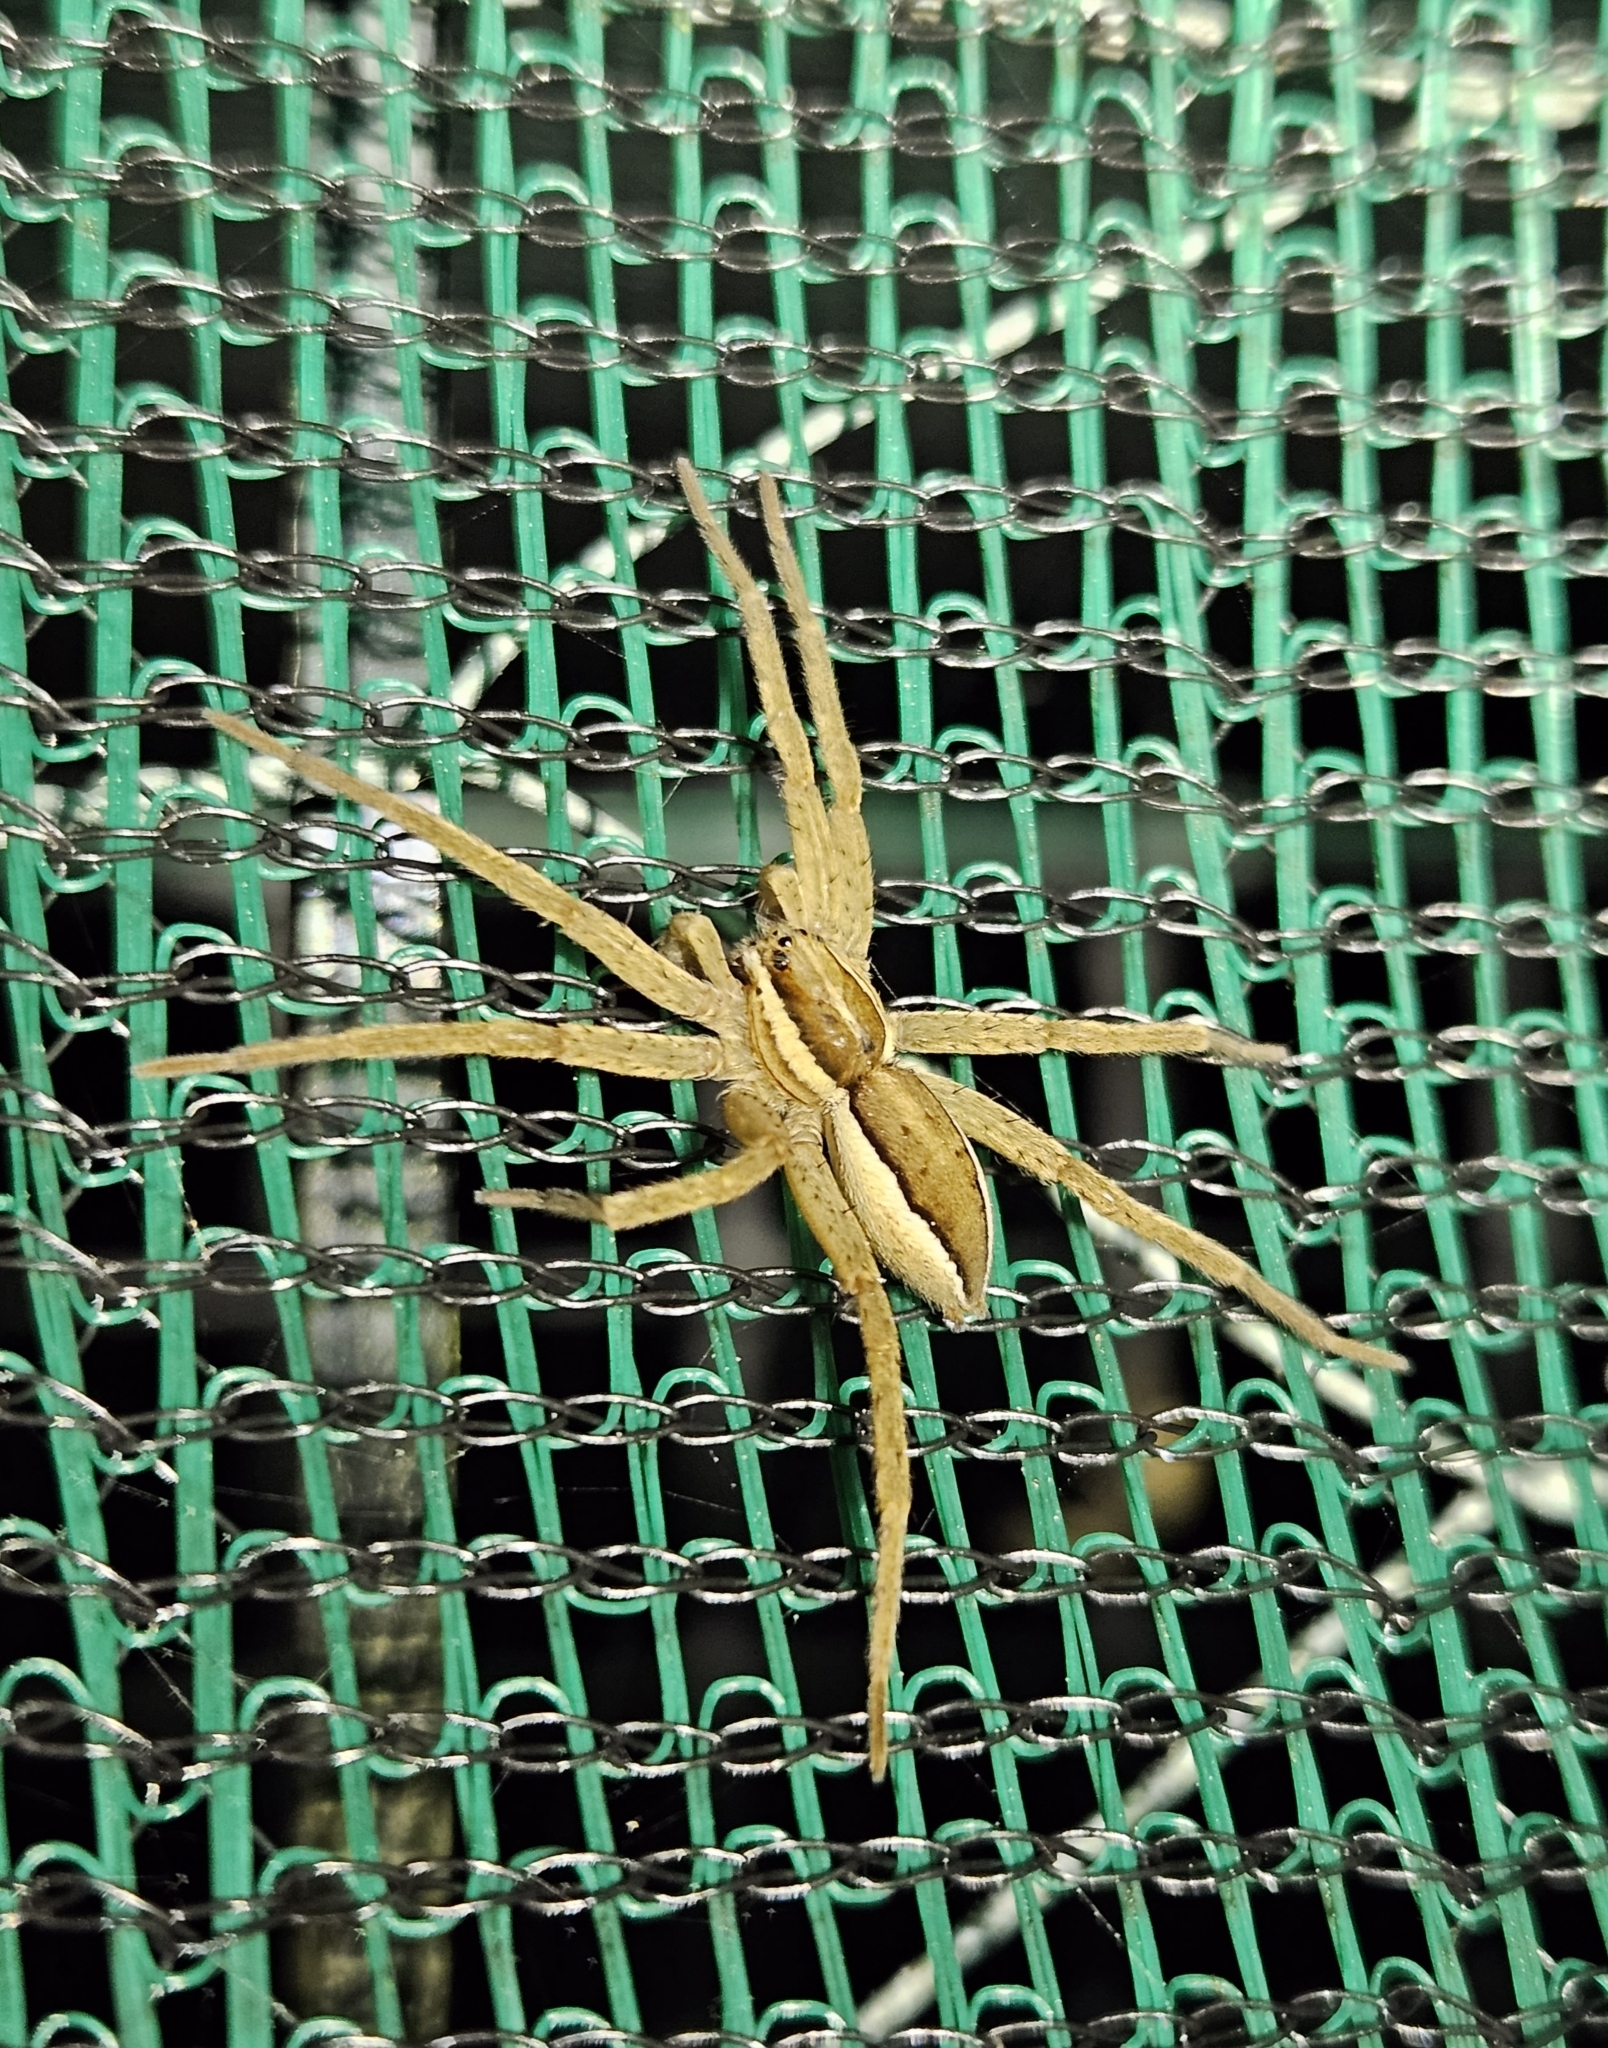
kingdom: Animalia
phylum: Arthropoda
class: Arachnida
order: Araneae
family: Pisauridae
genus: Dolomedes
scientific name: Dolomedes minor
